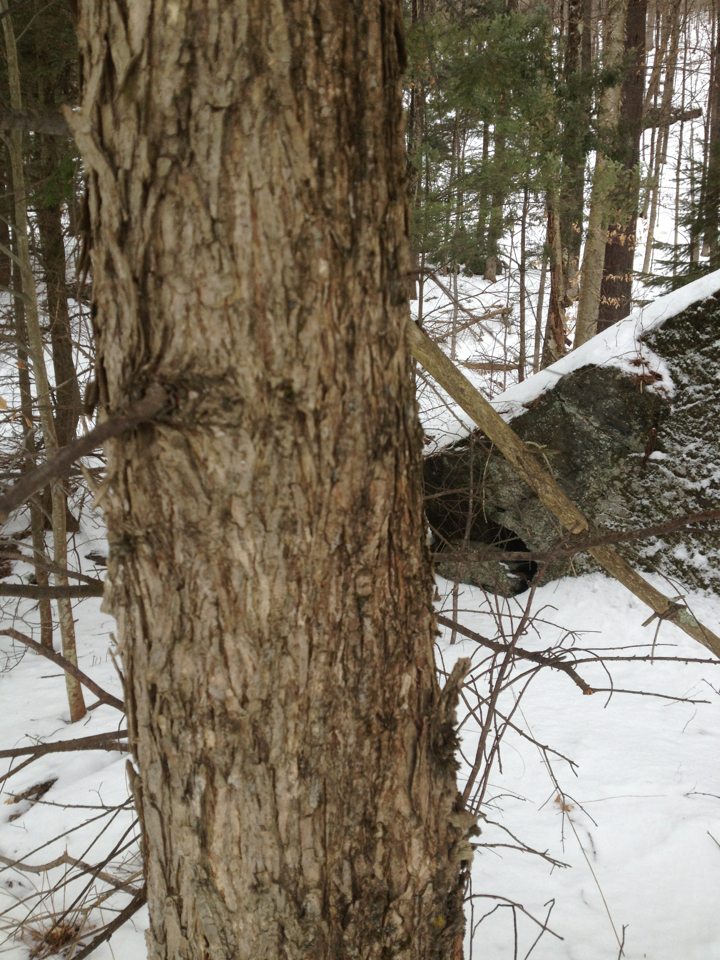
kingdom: Plantae
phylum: Tracheophyta
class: Magnoliopsida
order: Fagales
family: Betulaceae
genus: Ostrya
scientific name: Ostrya virginiana
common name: Ironwood
